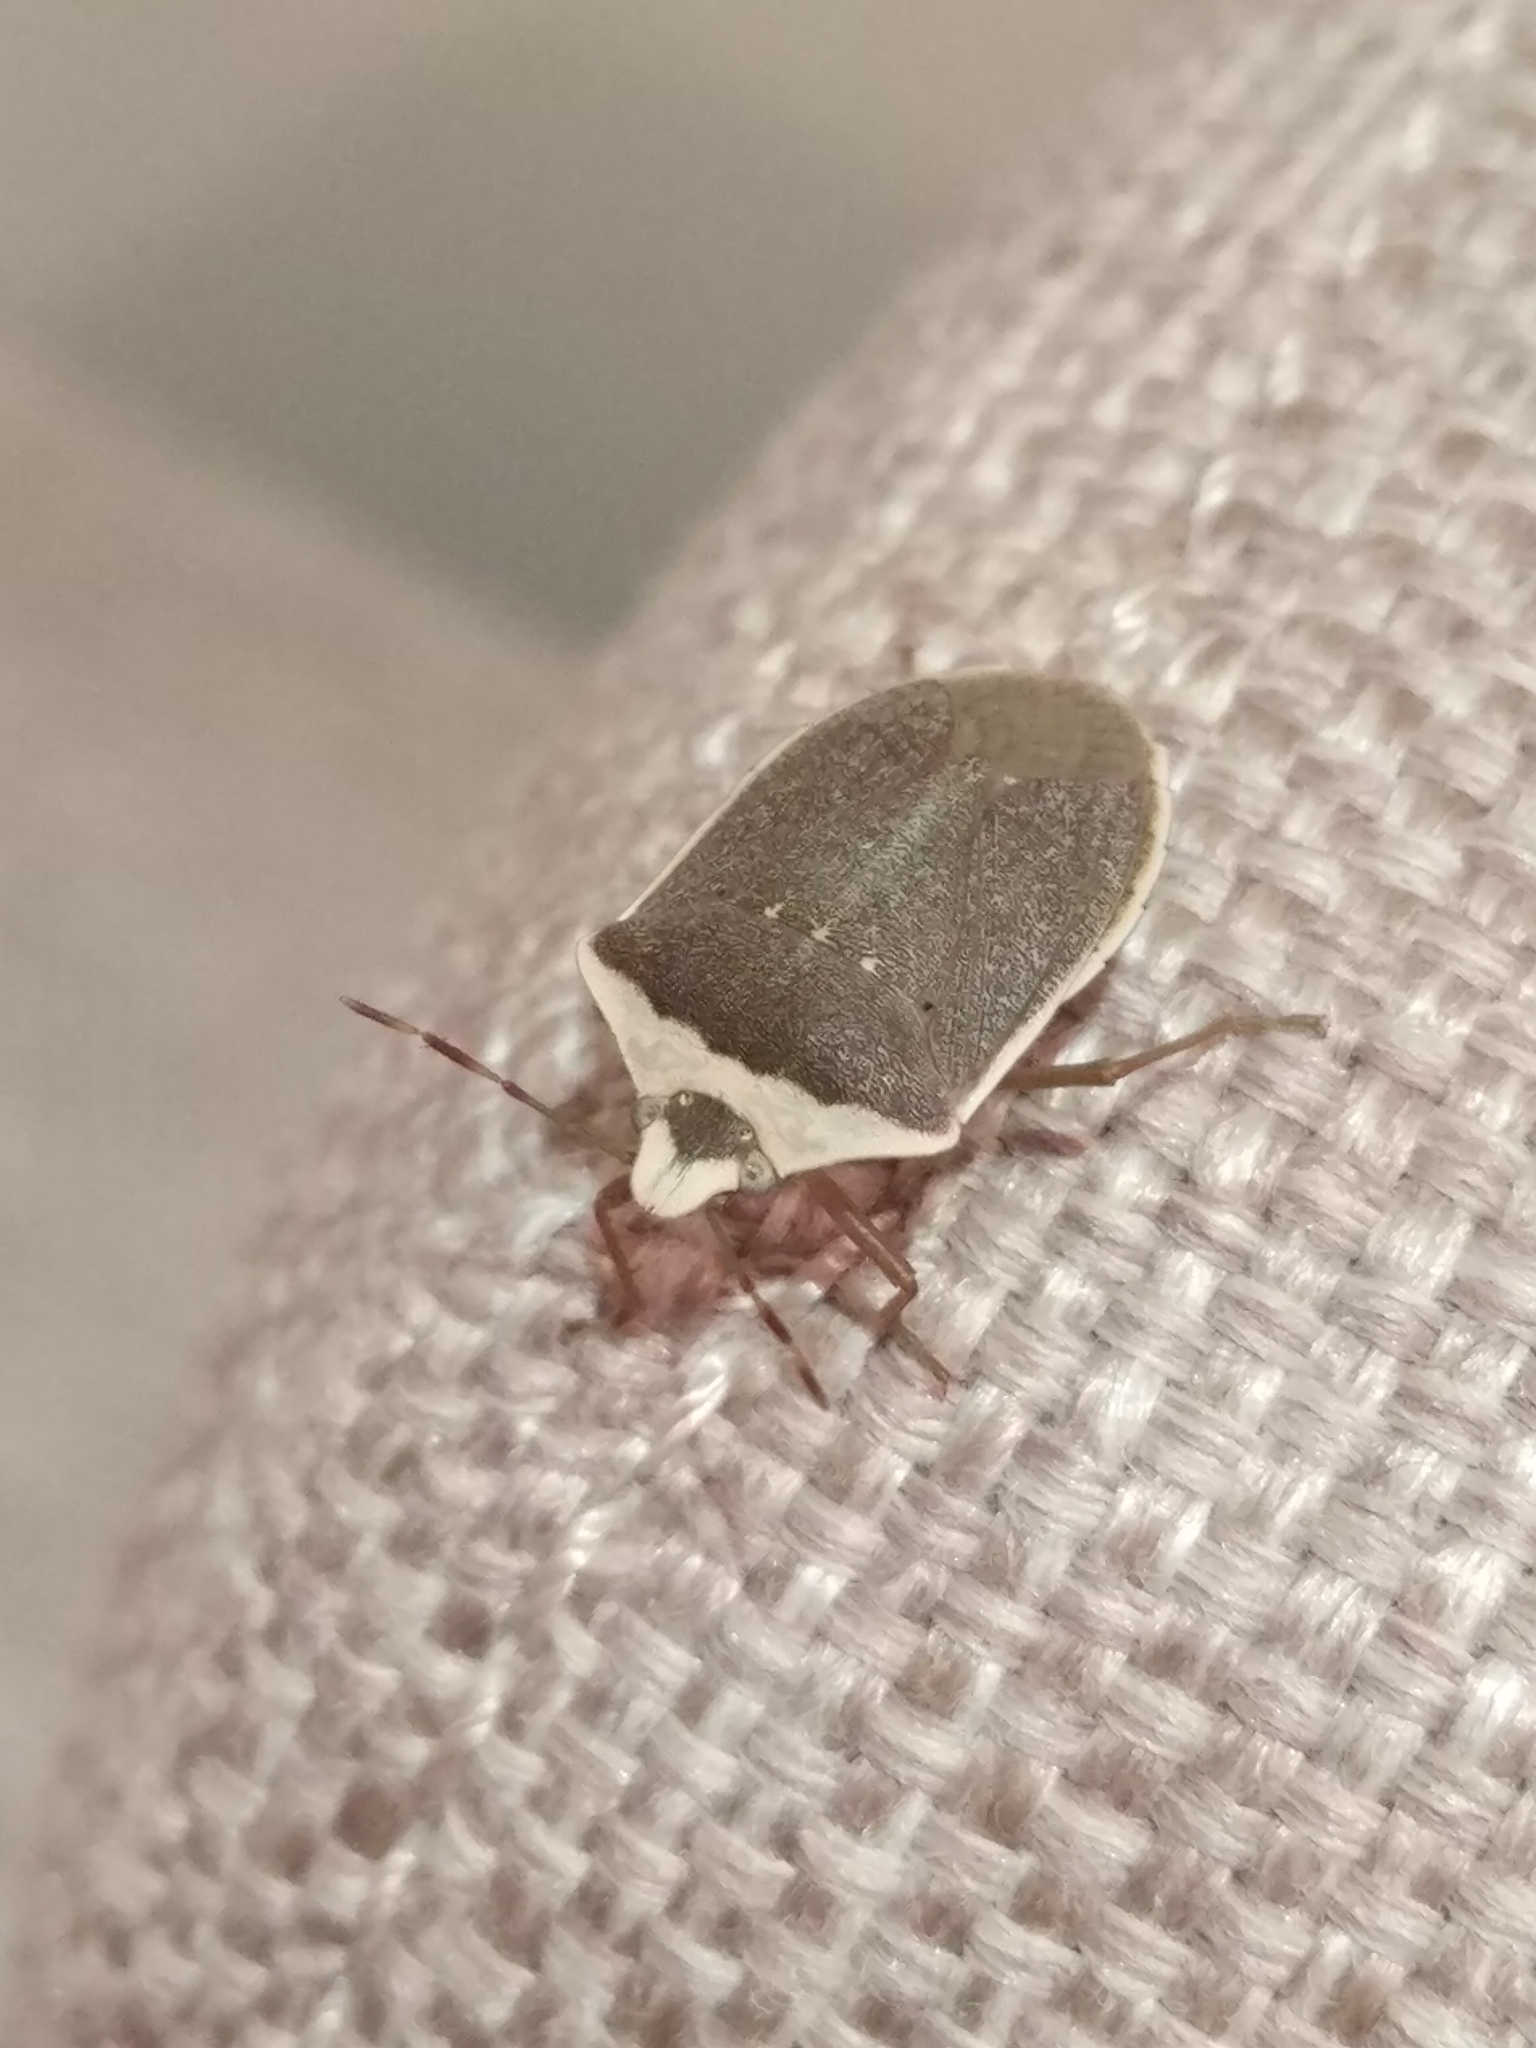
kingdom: Animalia
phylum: Arthropoda
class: Insecta
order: Hemiptera
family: Pentatomidae
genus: Nezara
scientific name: Nezara viridula
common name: Southern green stink bug
